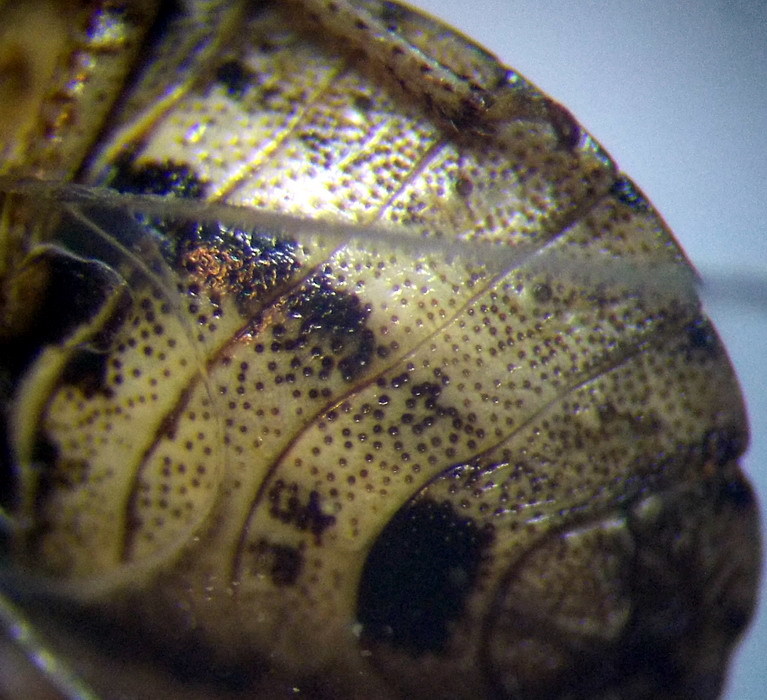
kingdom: Animalia
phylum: Arthropoda
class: Insecta
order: Hemiptera
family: Pentatomidae
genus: Sciocoris
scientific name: Sciocoris cursitans
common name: Sandrunner
